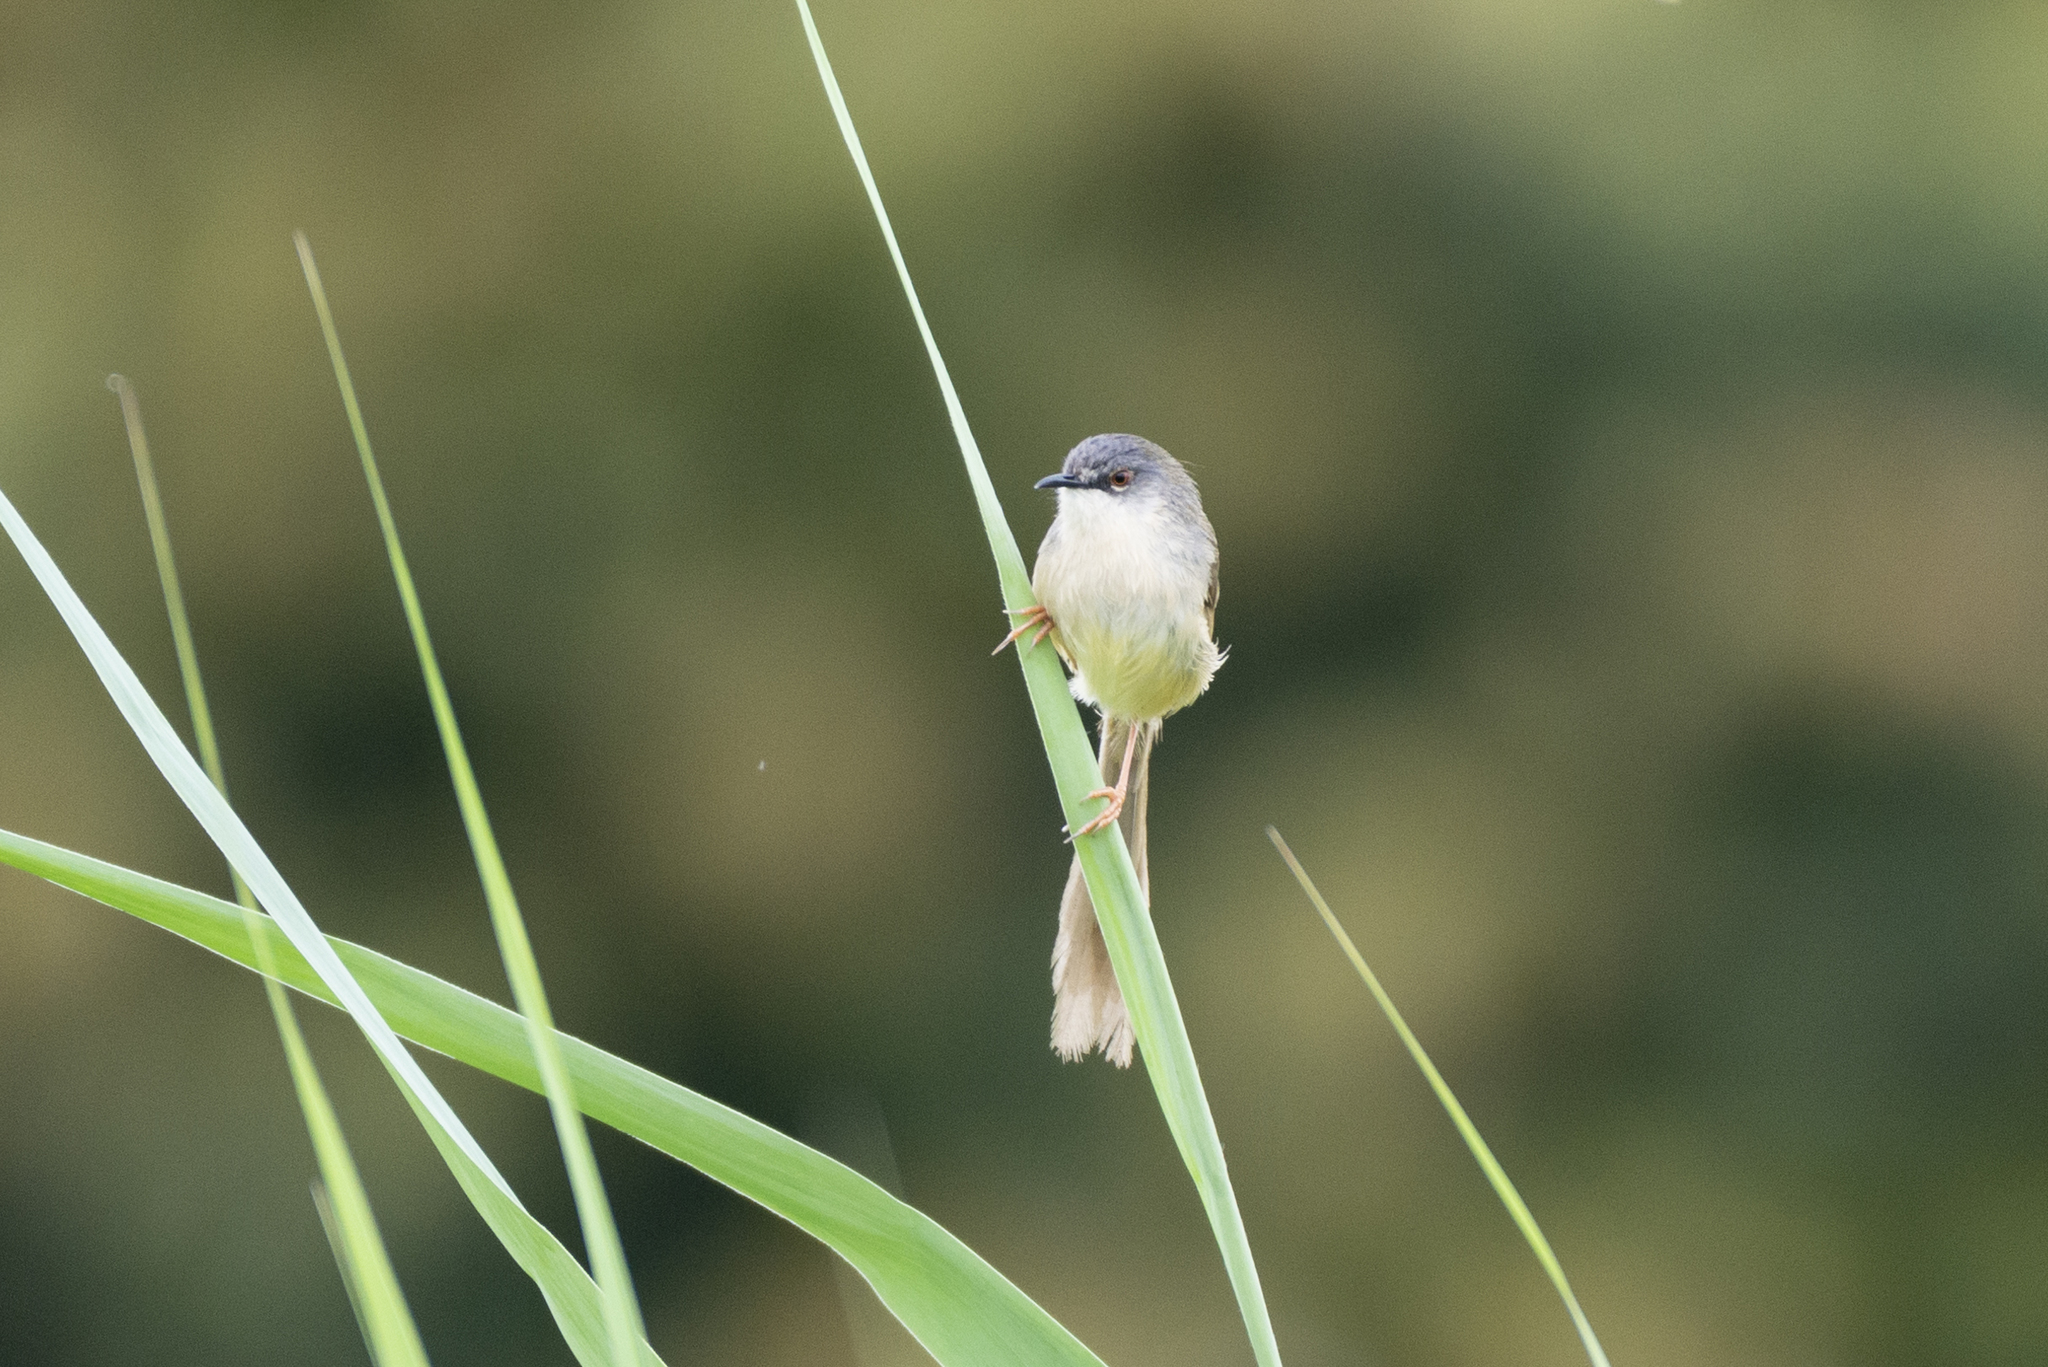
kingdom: Animalia
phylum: Chordata
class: Aves
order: Passeriformes
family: Cisticolidae
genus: Prinia
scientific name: Prinia flaviventris
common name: Yellow-bellied prinia
